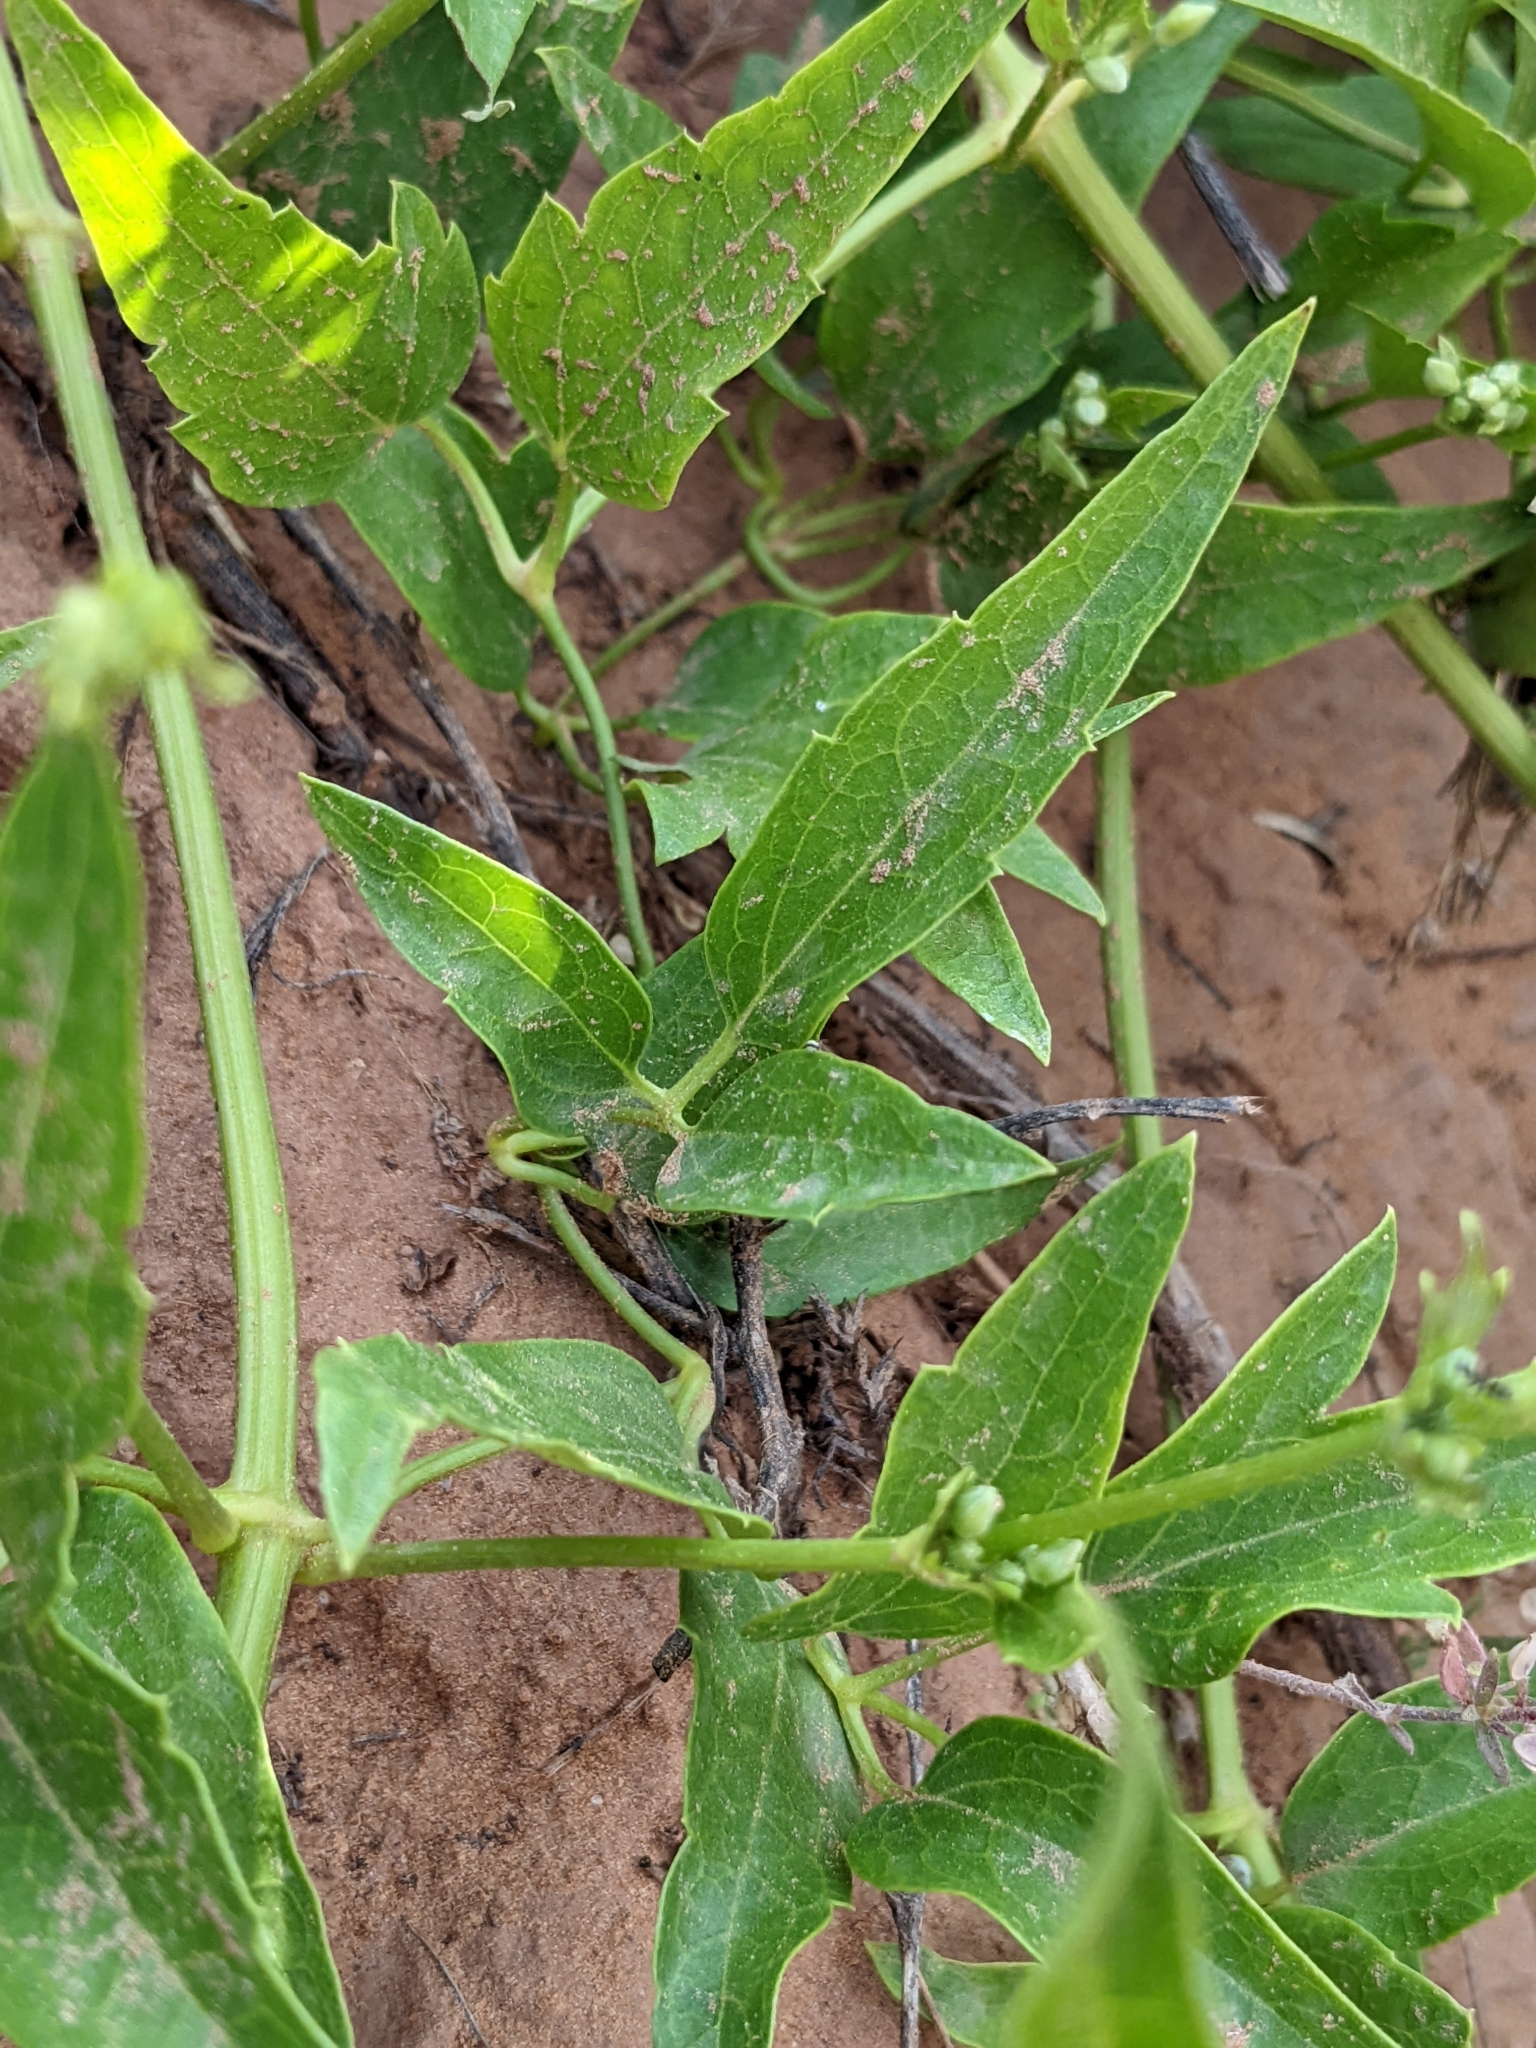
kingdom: Plantae
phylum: Tracheophyta
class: Magnoliopsida
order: Ranunculales
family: Ranunculaceae
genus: Clematis
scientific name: Clematis ligusticifolia
